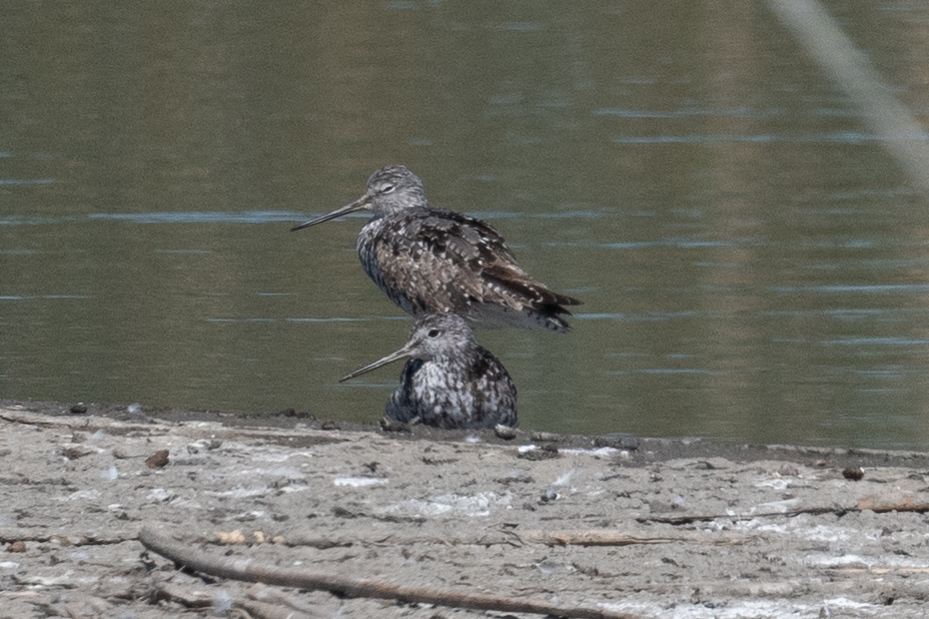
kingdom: Animalia
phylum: Chordata
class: Aves
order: Charadriiformes
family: Scolopacidae
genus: Tringa
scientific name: Tringa melanoleuca
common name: Greater yellowlegs
